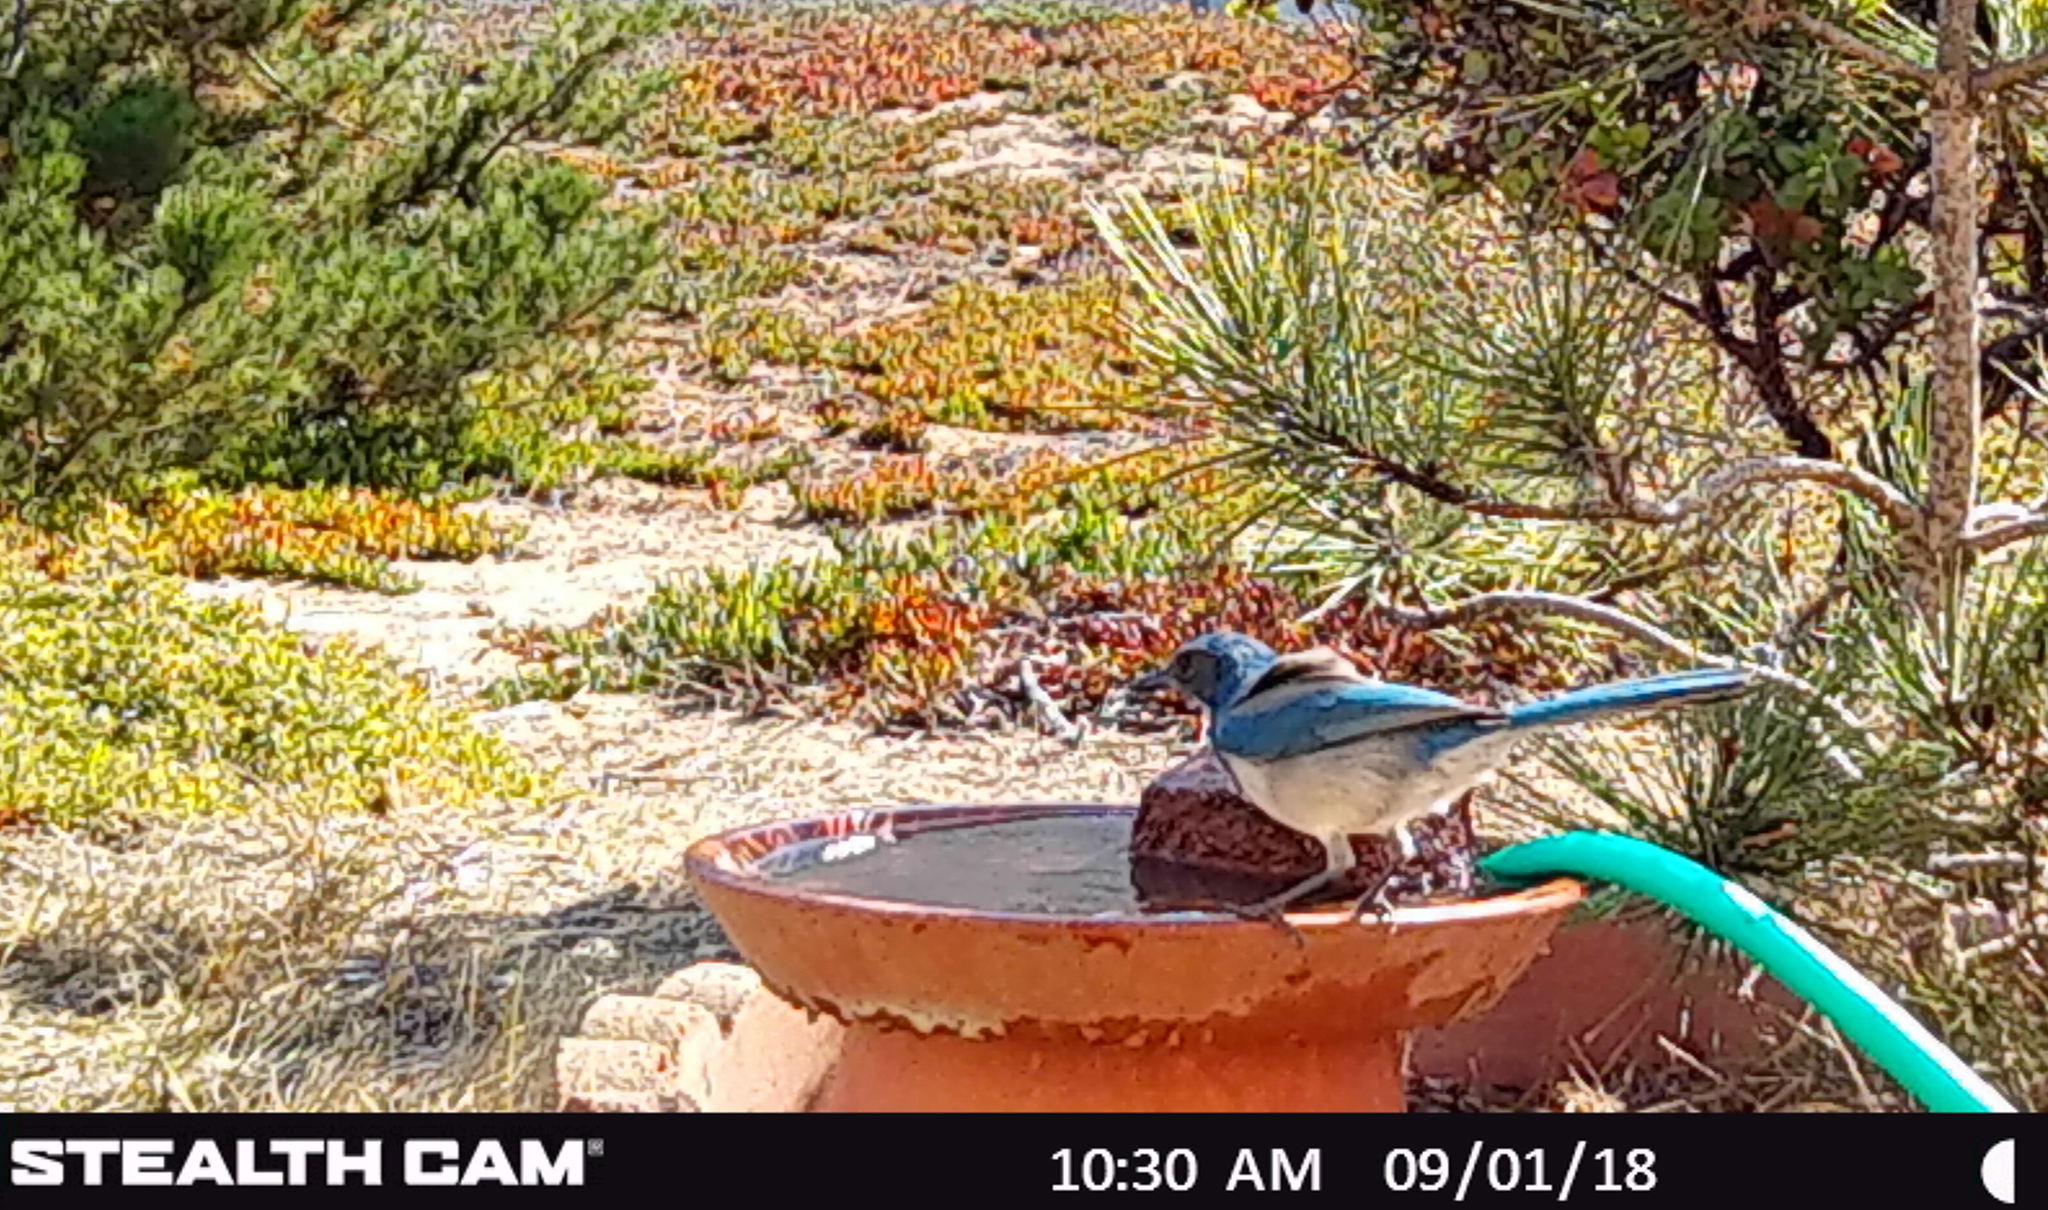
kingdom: Animalia
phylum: Chordata
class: Aves
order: Passeriformes
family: Corvidae
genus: Aphelocoma
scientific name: Aphelocoma californica
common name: California scrub-jay
